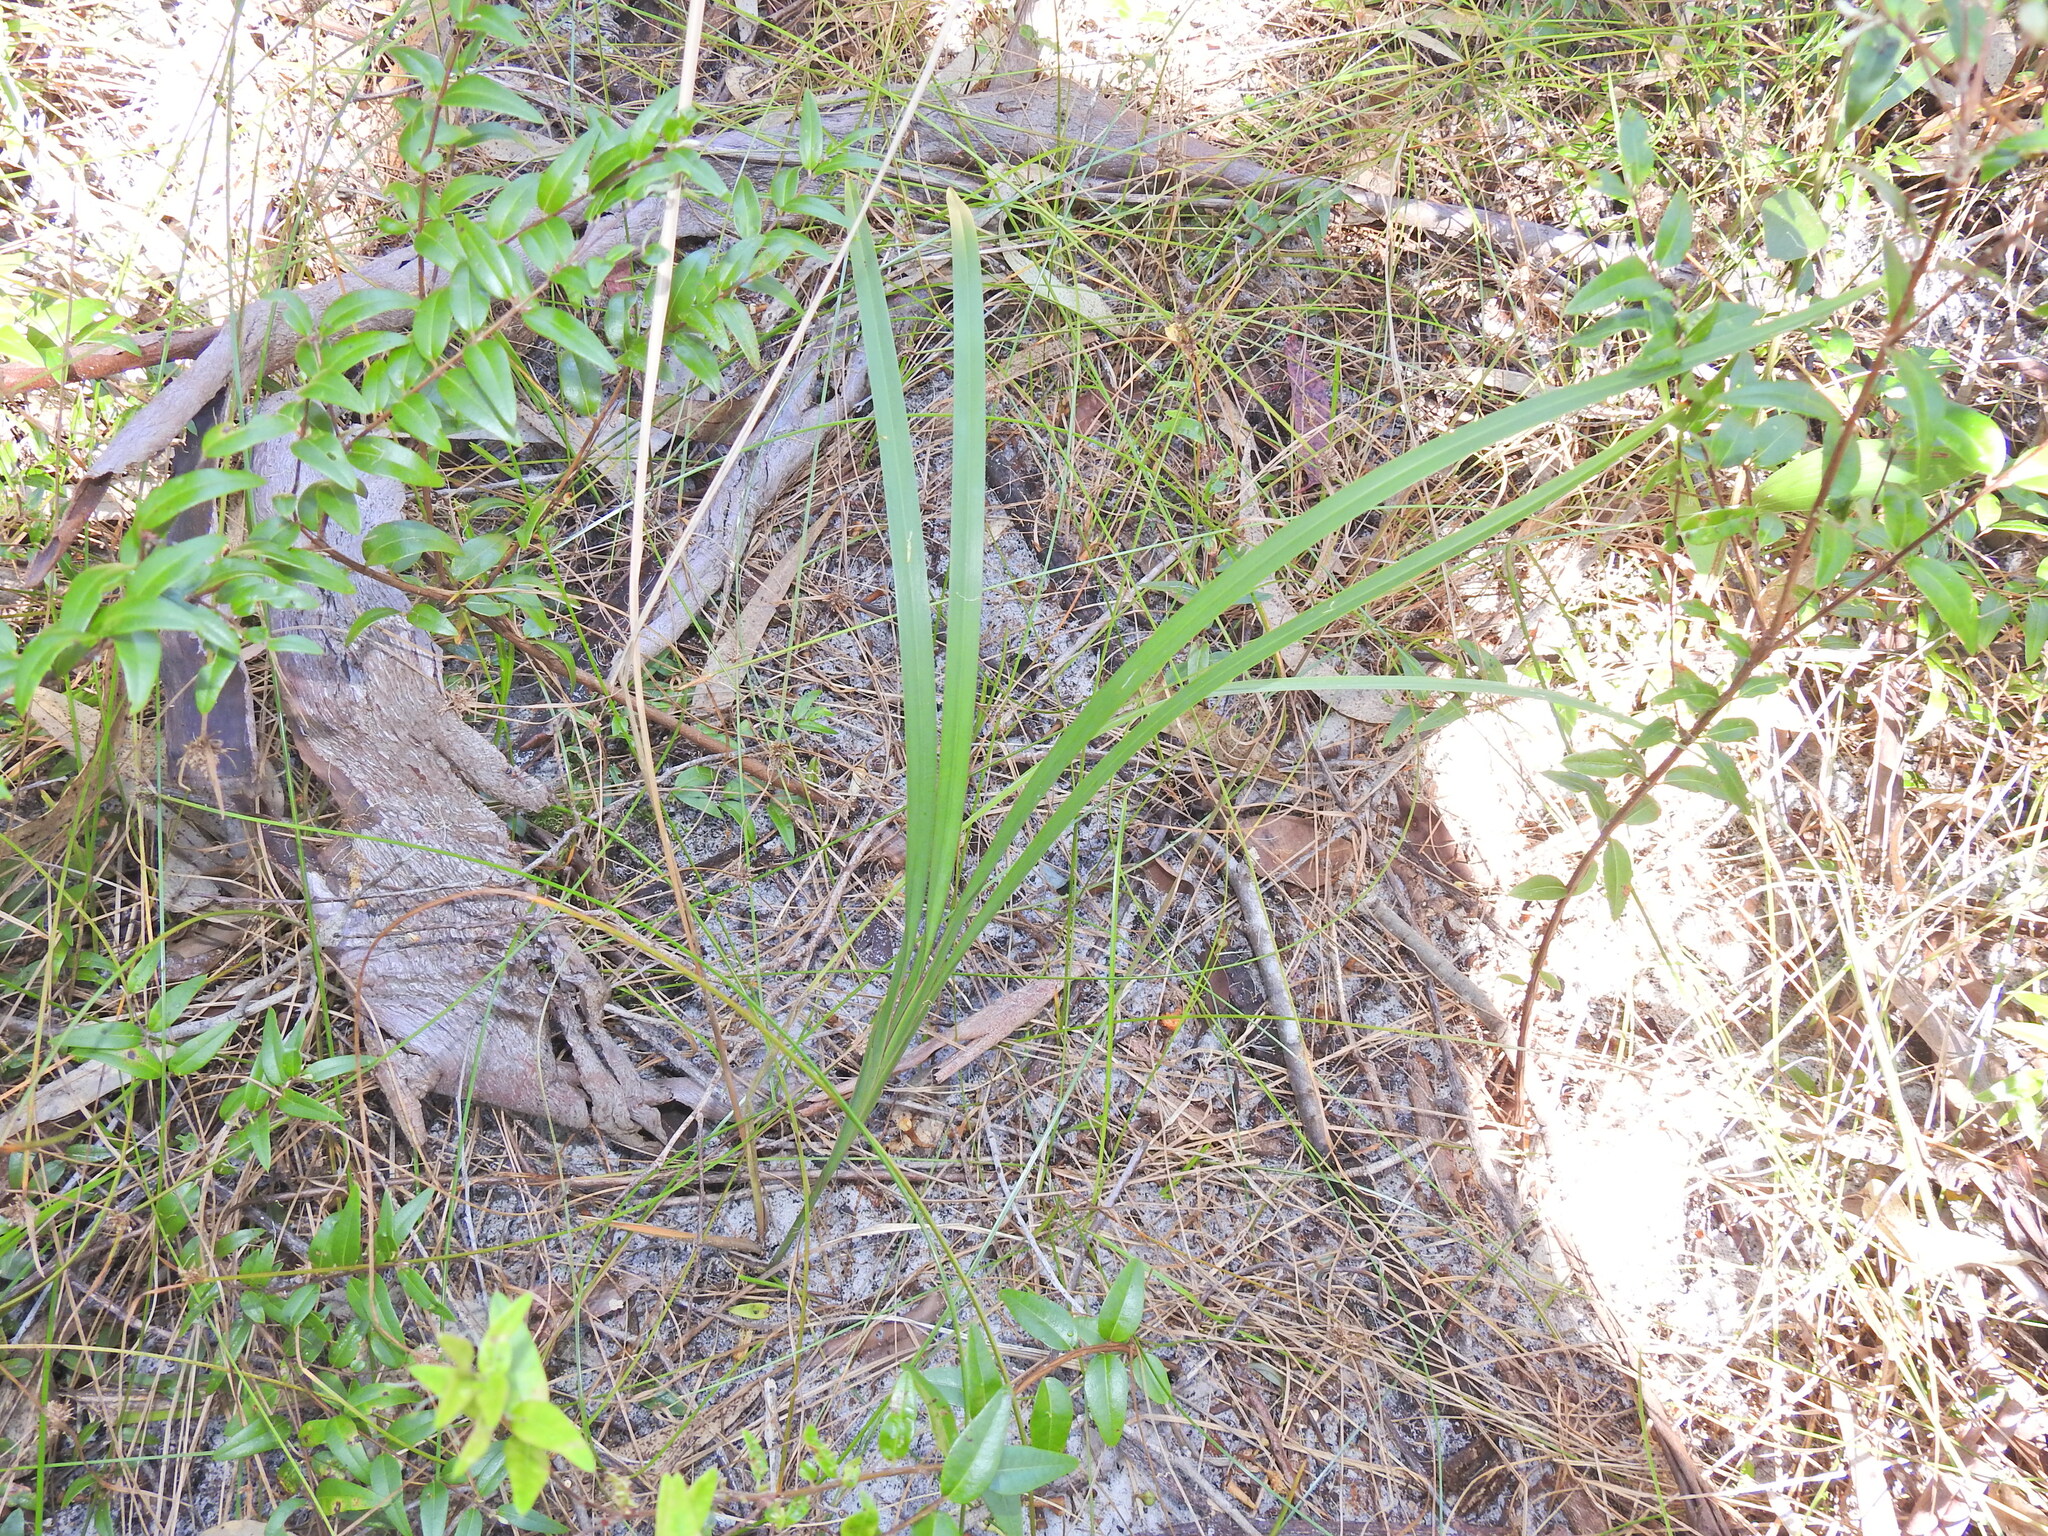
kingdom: Plantae
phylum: Tracheophyta
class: Liliopsida
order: Asparagales
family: Asphodelaceae
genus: Dianella
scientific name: Dianella caerulea
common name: Blue flax-lily
